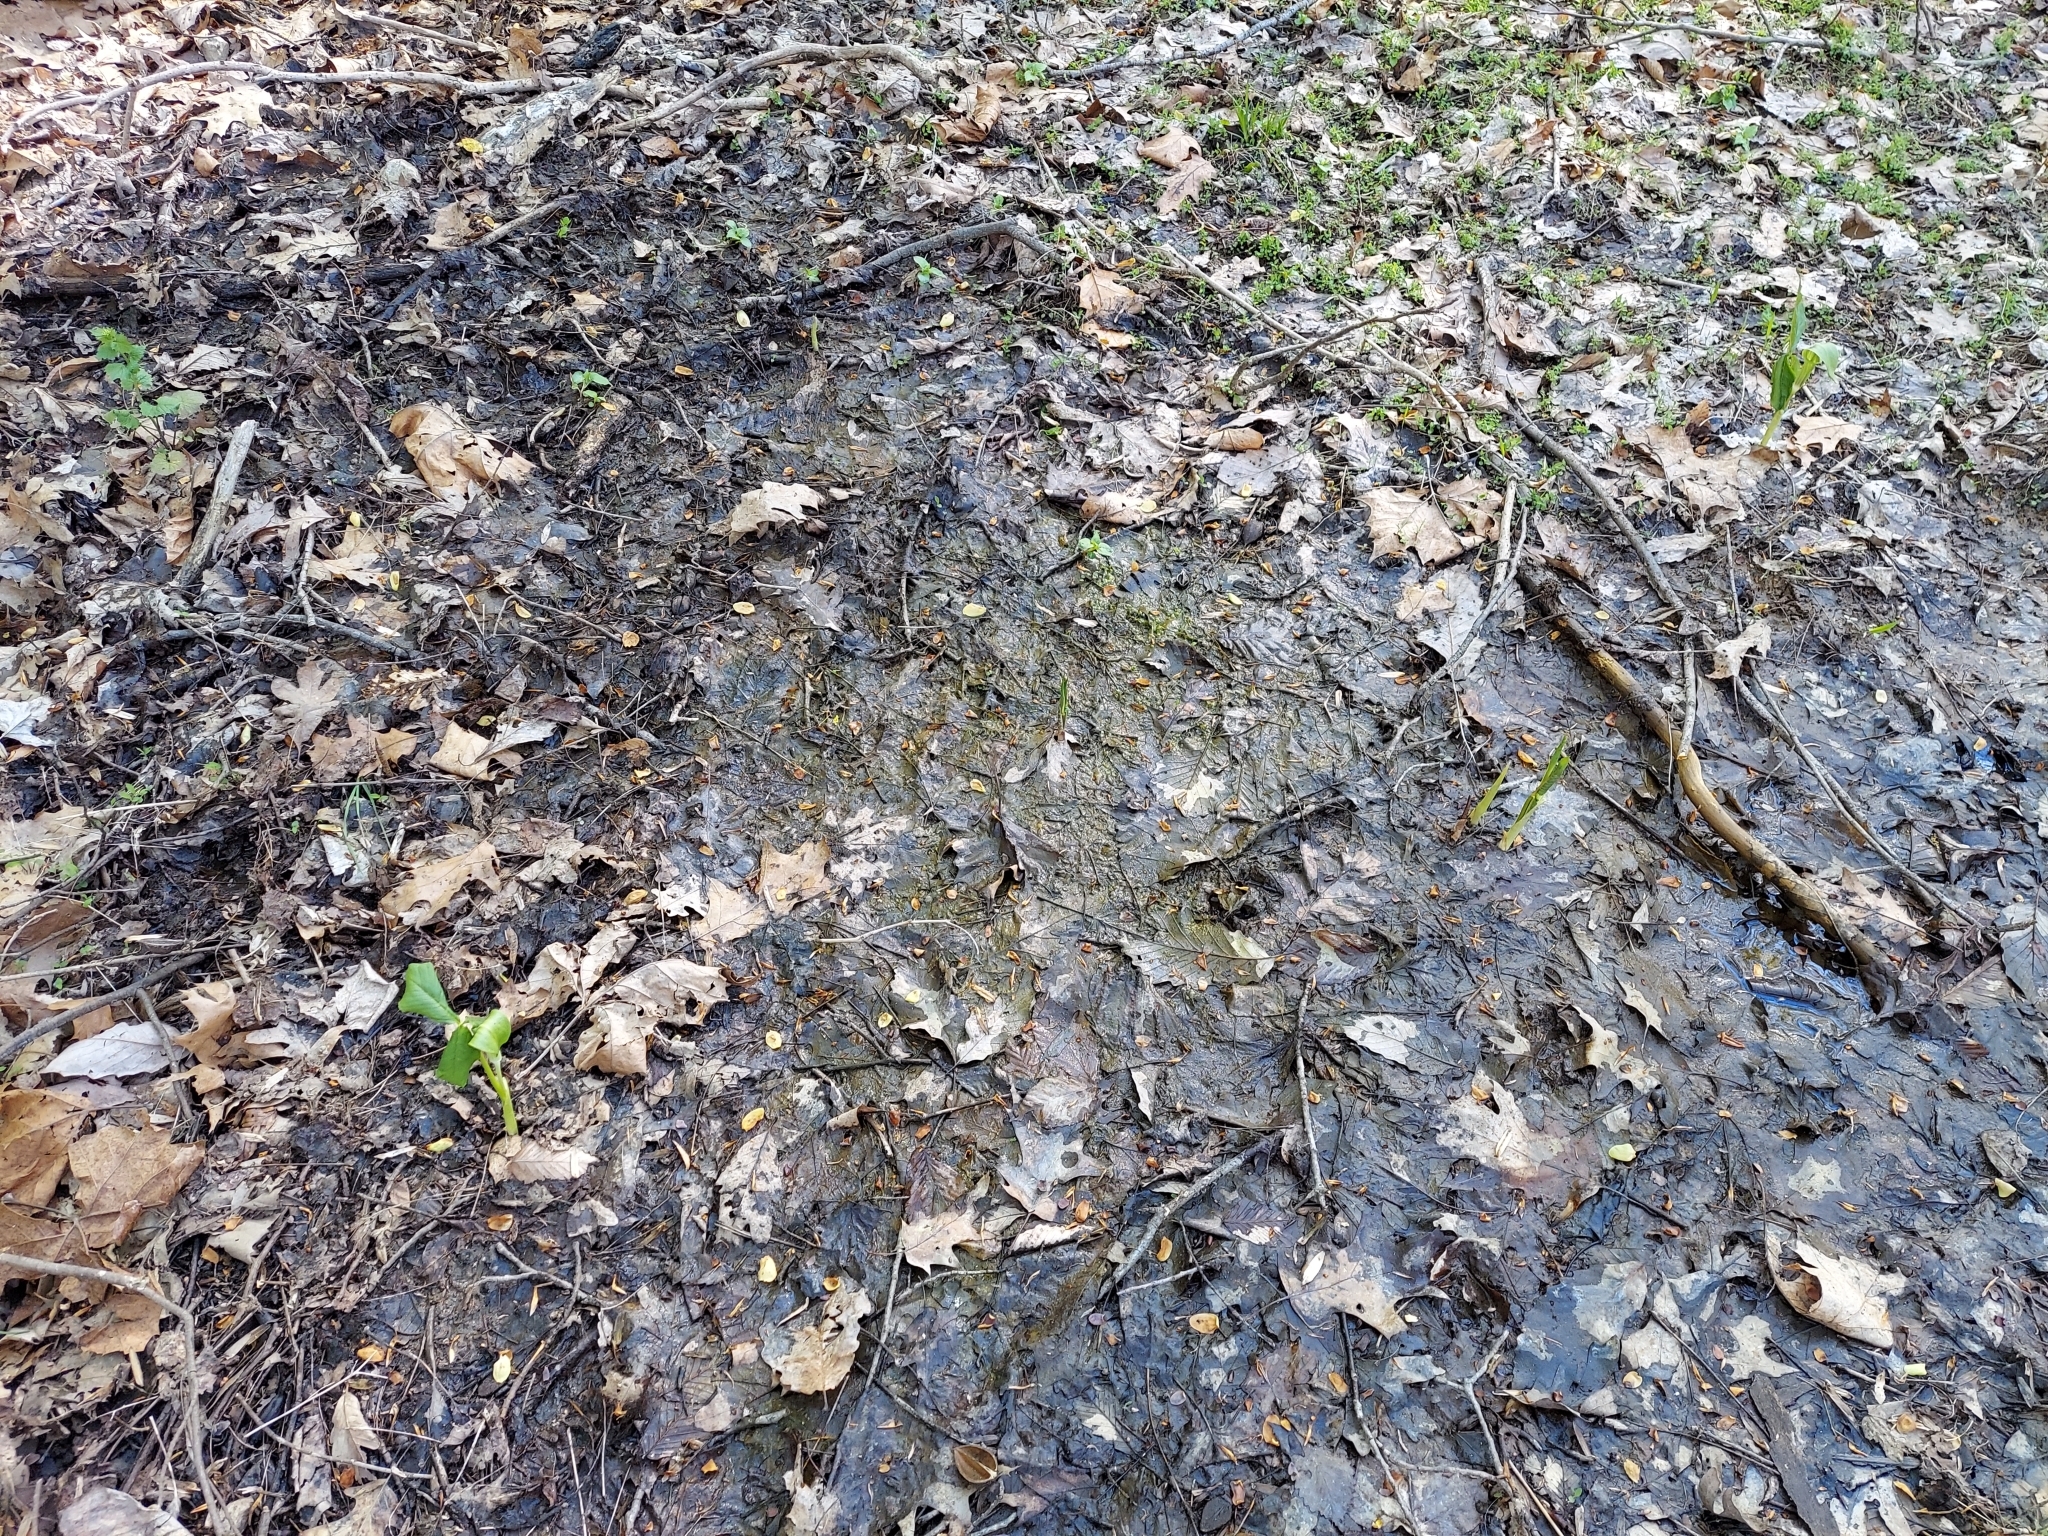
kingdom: Plantae
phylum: Tracheophyta
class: Liliopsida
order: Alismatales
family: Araceae
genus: Arisaema
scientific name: Arisaema triphyllum
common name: Jack-in-the-pulpit
